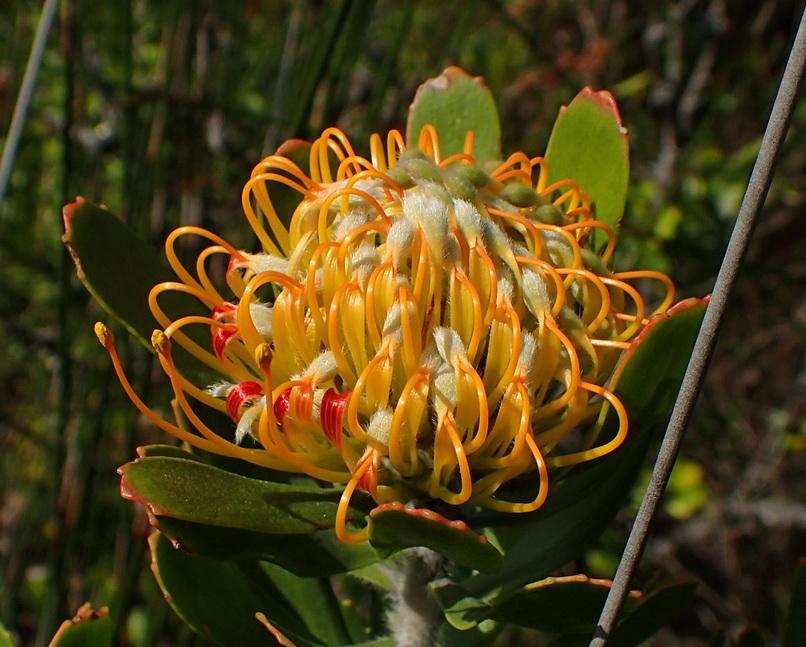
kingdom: Plantae
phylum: Tracheophyta
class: Magnoliopsida
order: Proteales
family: Proteaceae
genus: Leucospermum
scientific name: Leucospermum praecox
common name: Mossel bay pincushion
